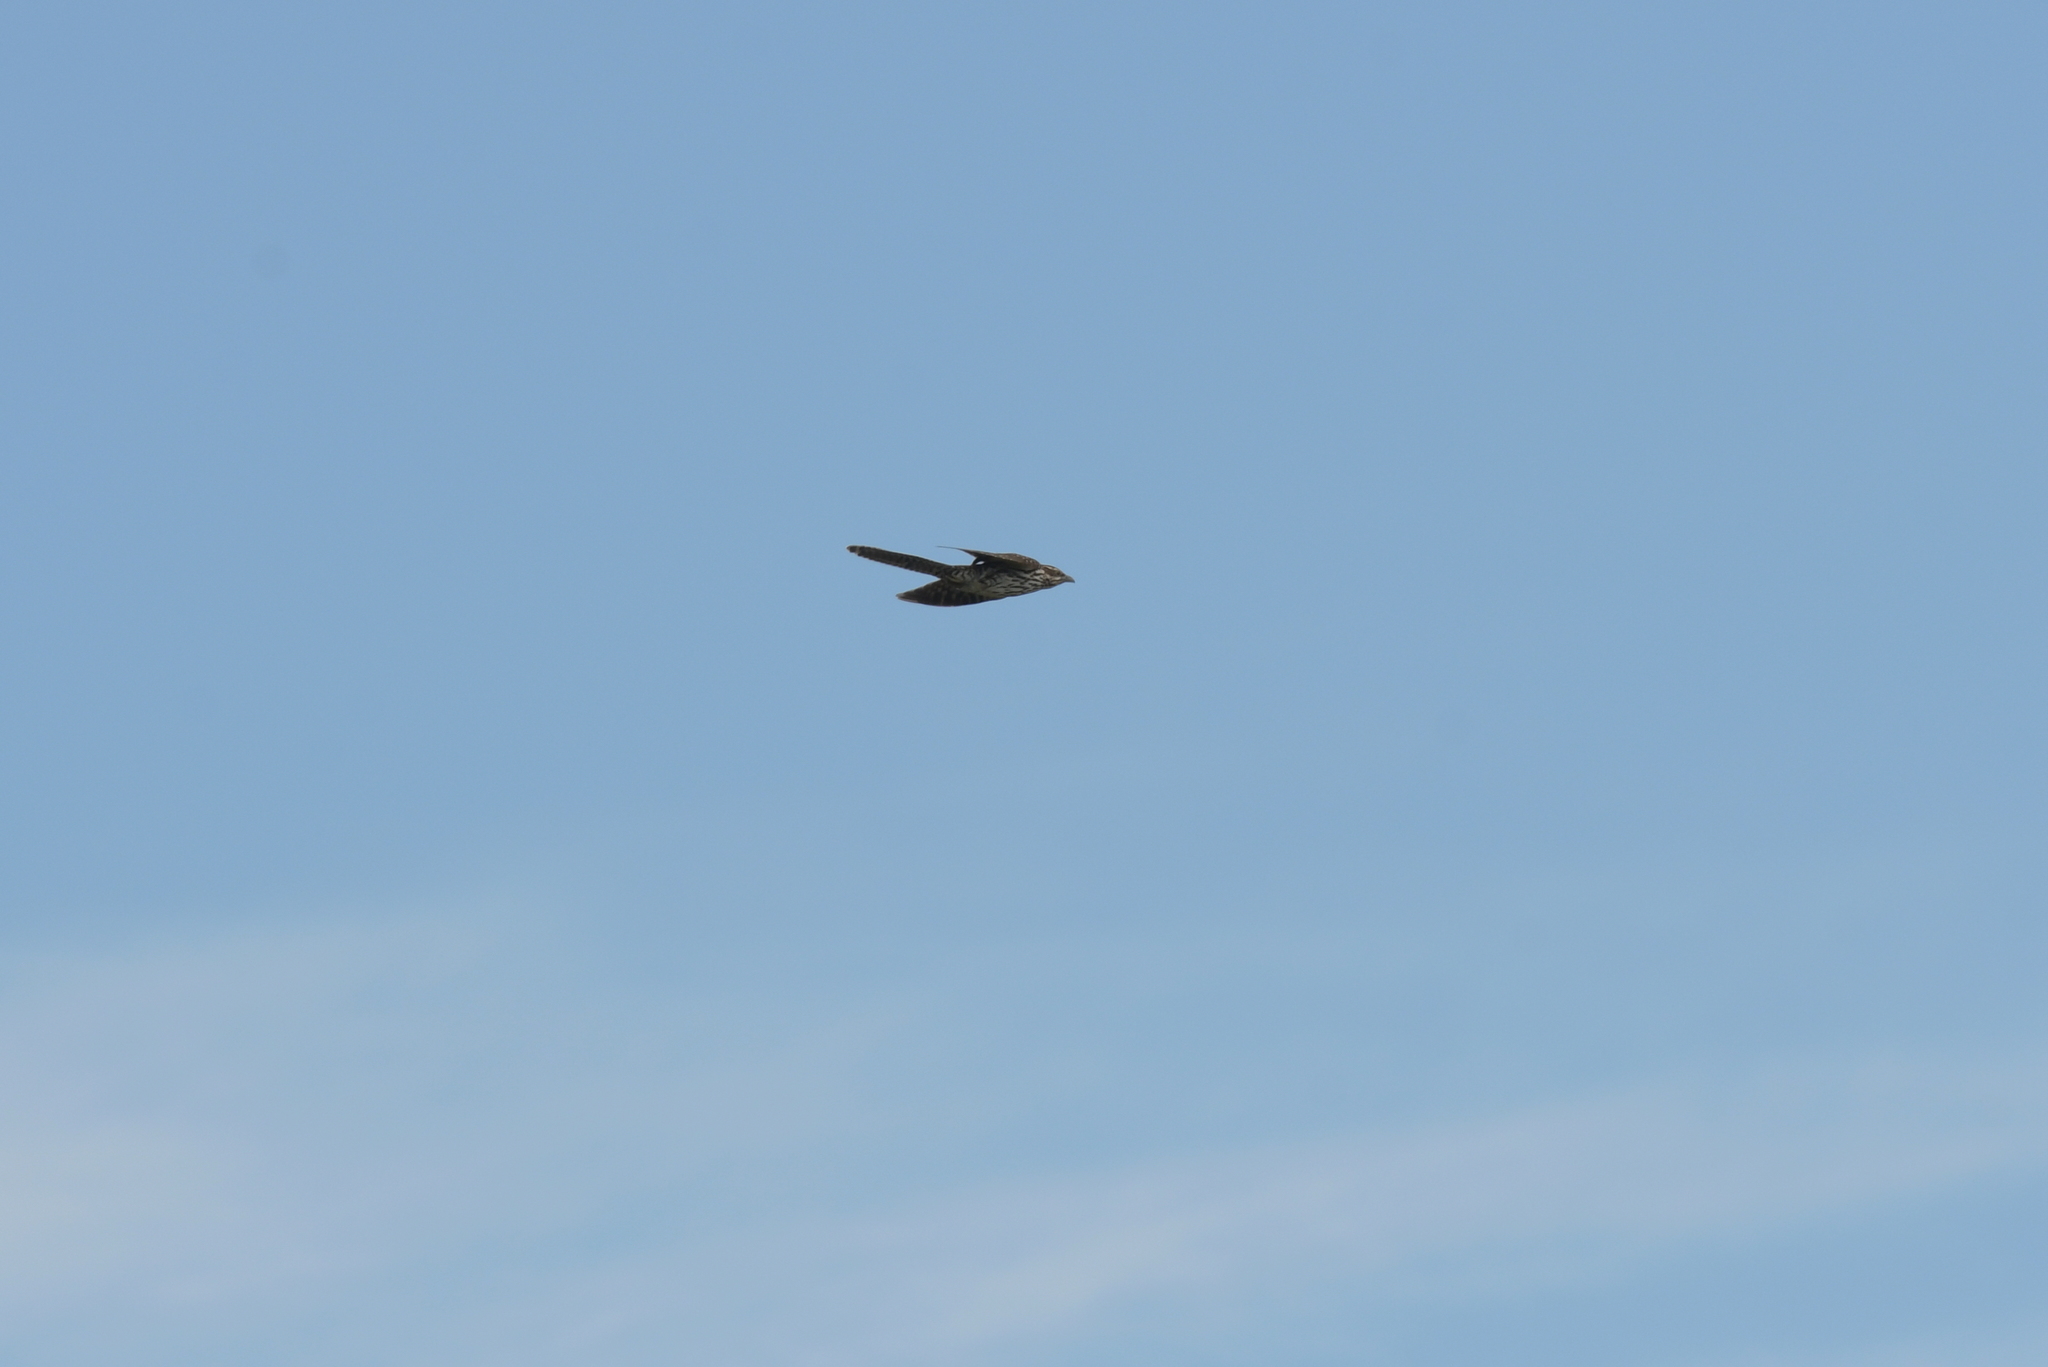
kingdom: Animalia
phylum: Chordata
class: Aves
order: Cuculiformes
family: Cuculidae
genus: Urodynamis
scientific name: Urodynamis taitensis
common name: Long-tailed koel
